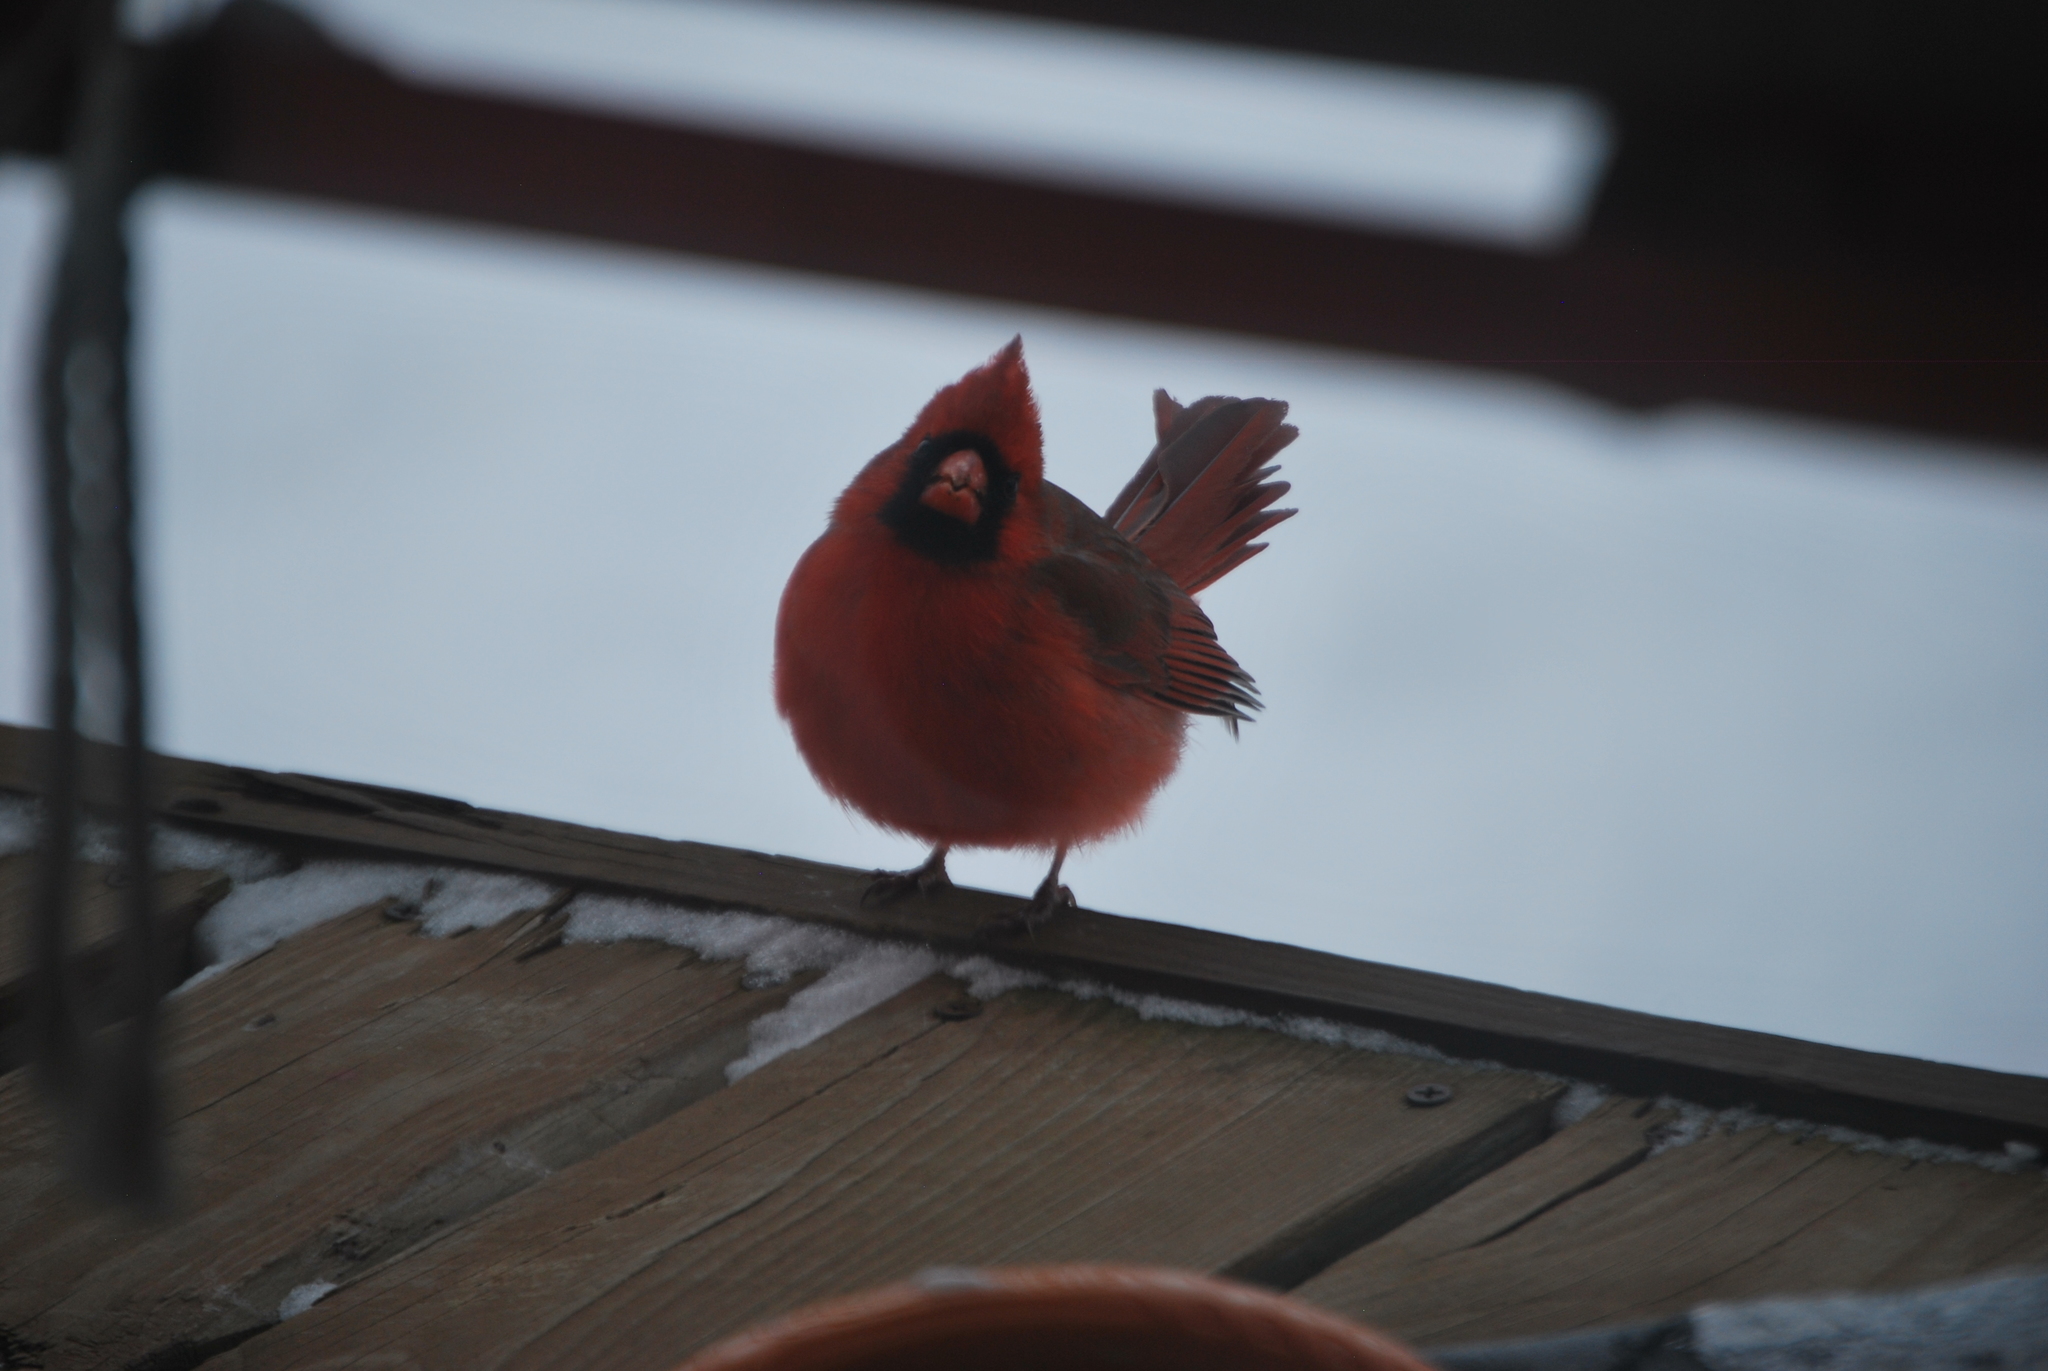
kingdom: Animalia
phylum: Chordata
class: Aves
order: Passeriformes
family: Cardinalidae
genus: Cardinalis
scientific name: Cardinalis cardinalis
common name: Northern cardinal
